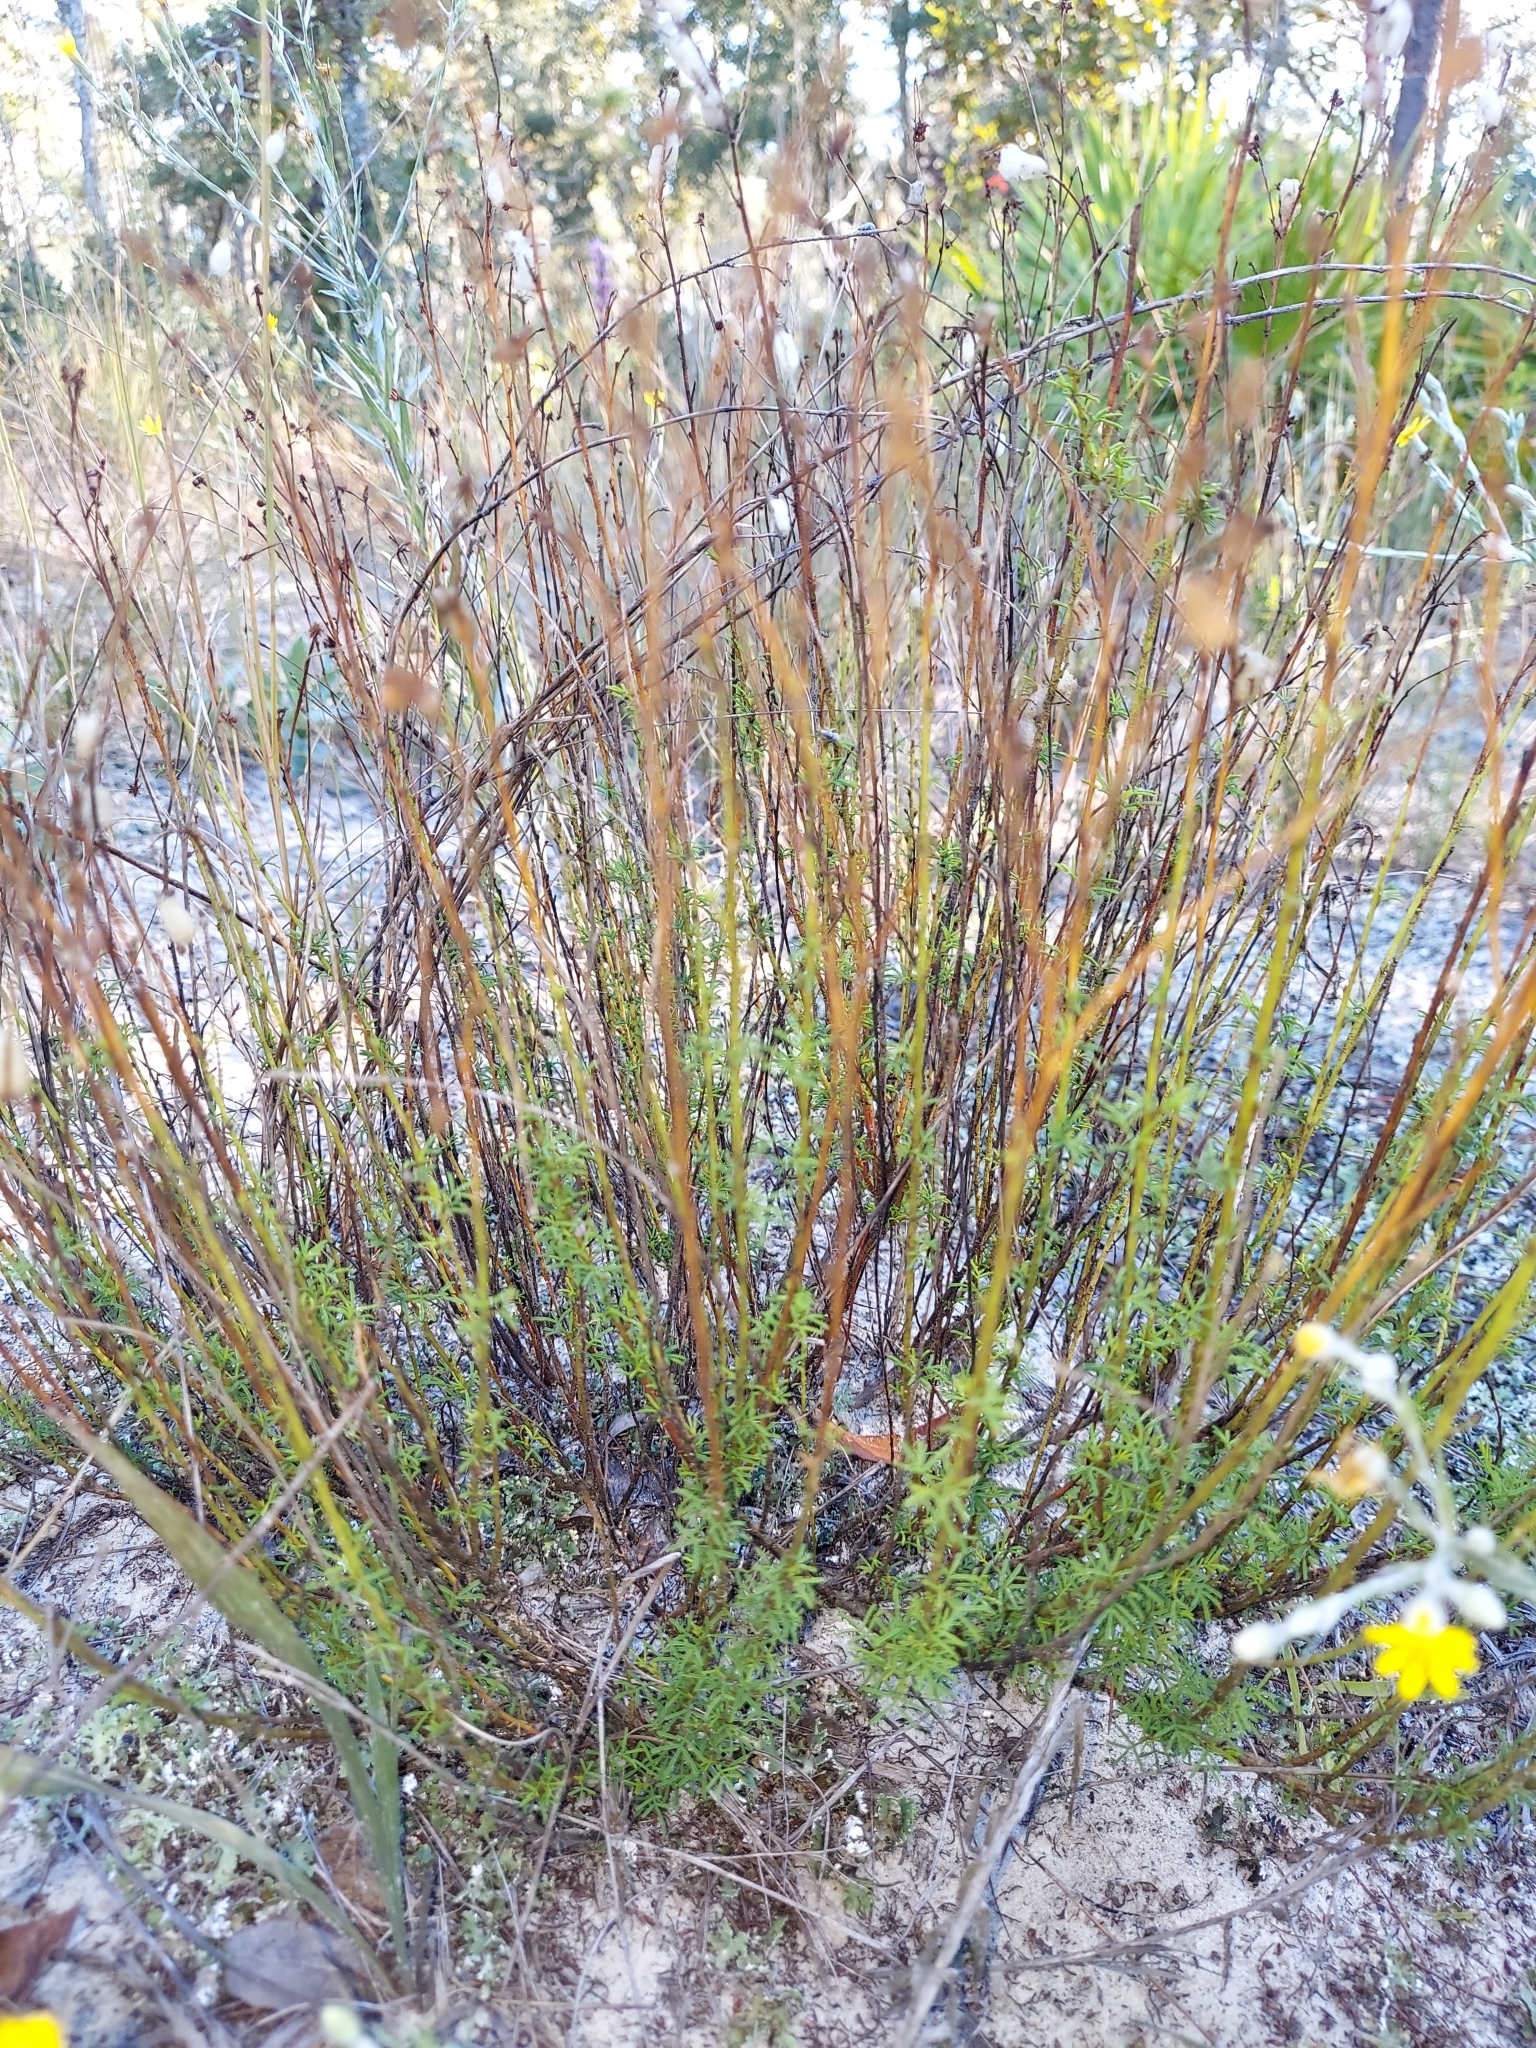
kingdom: Plantae
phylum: Tracheophyta
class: Magnoliopsida
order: Fabales
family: Fabaceae
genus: Dalea
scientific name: Dalea feayi
